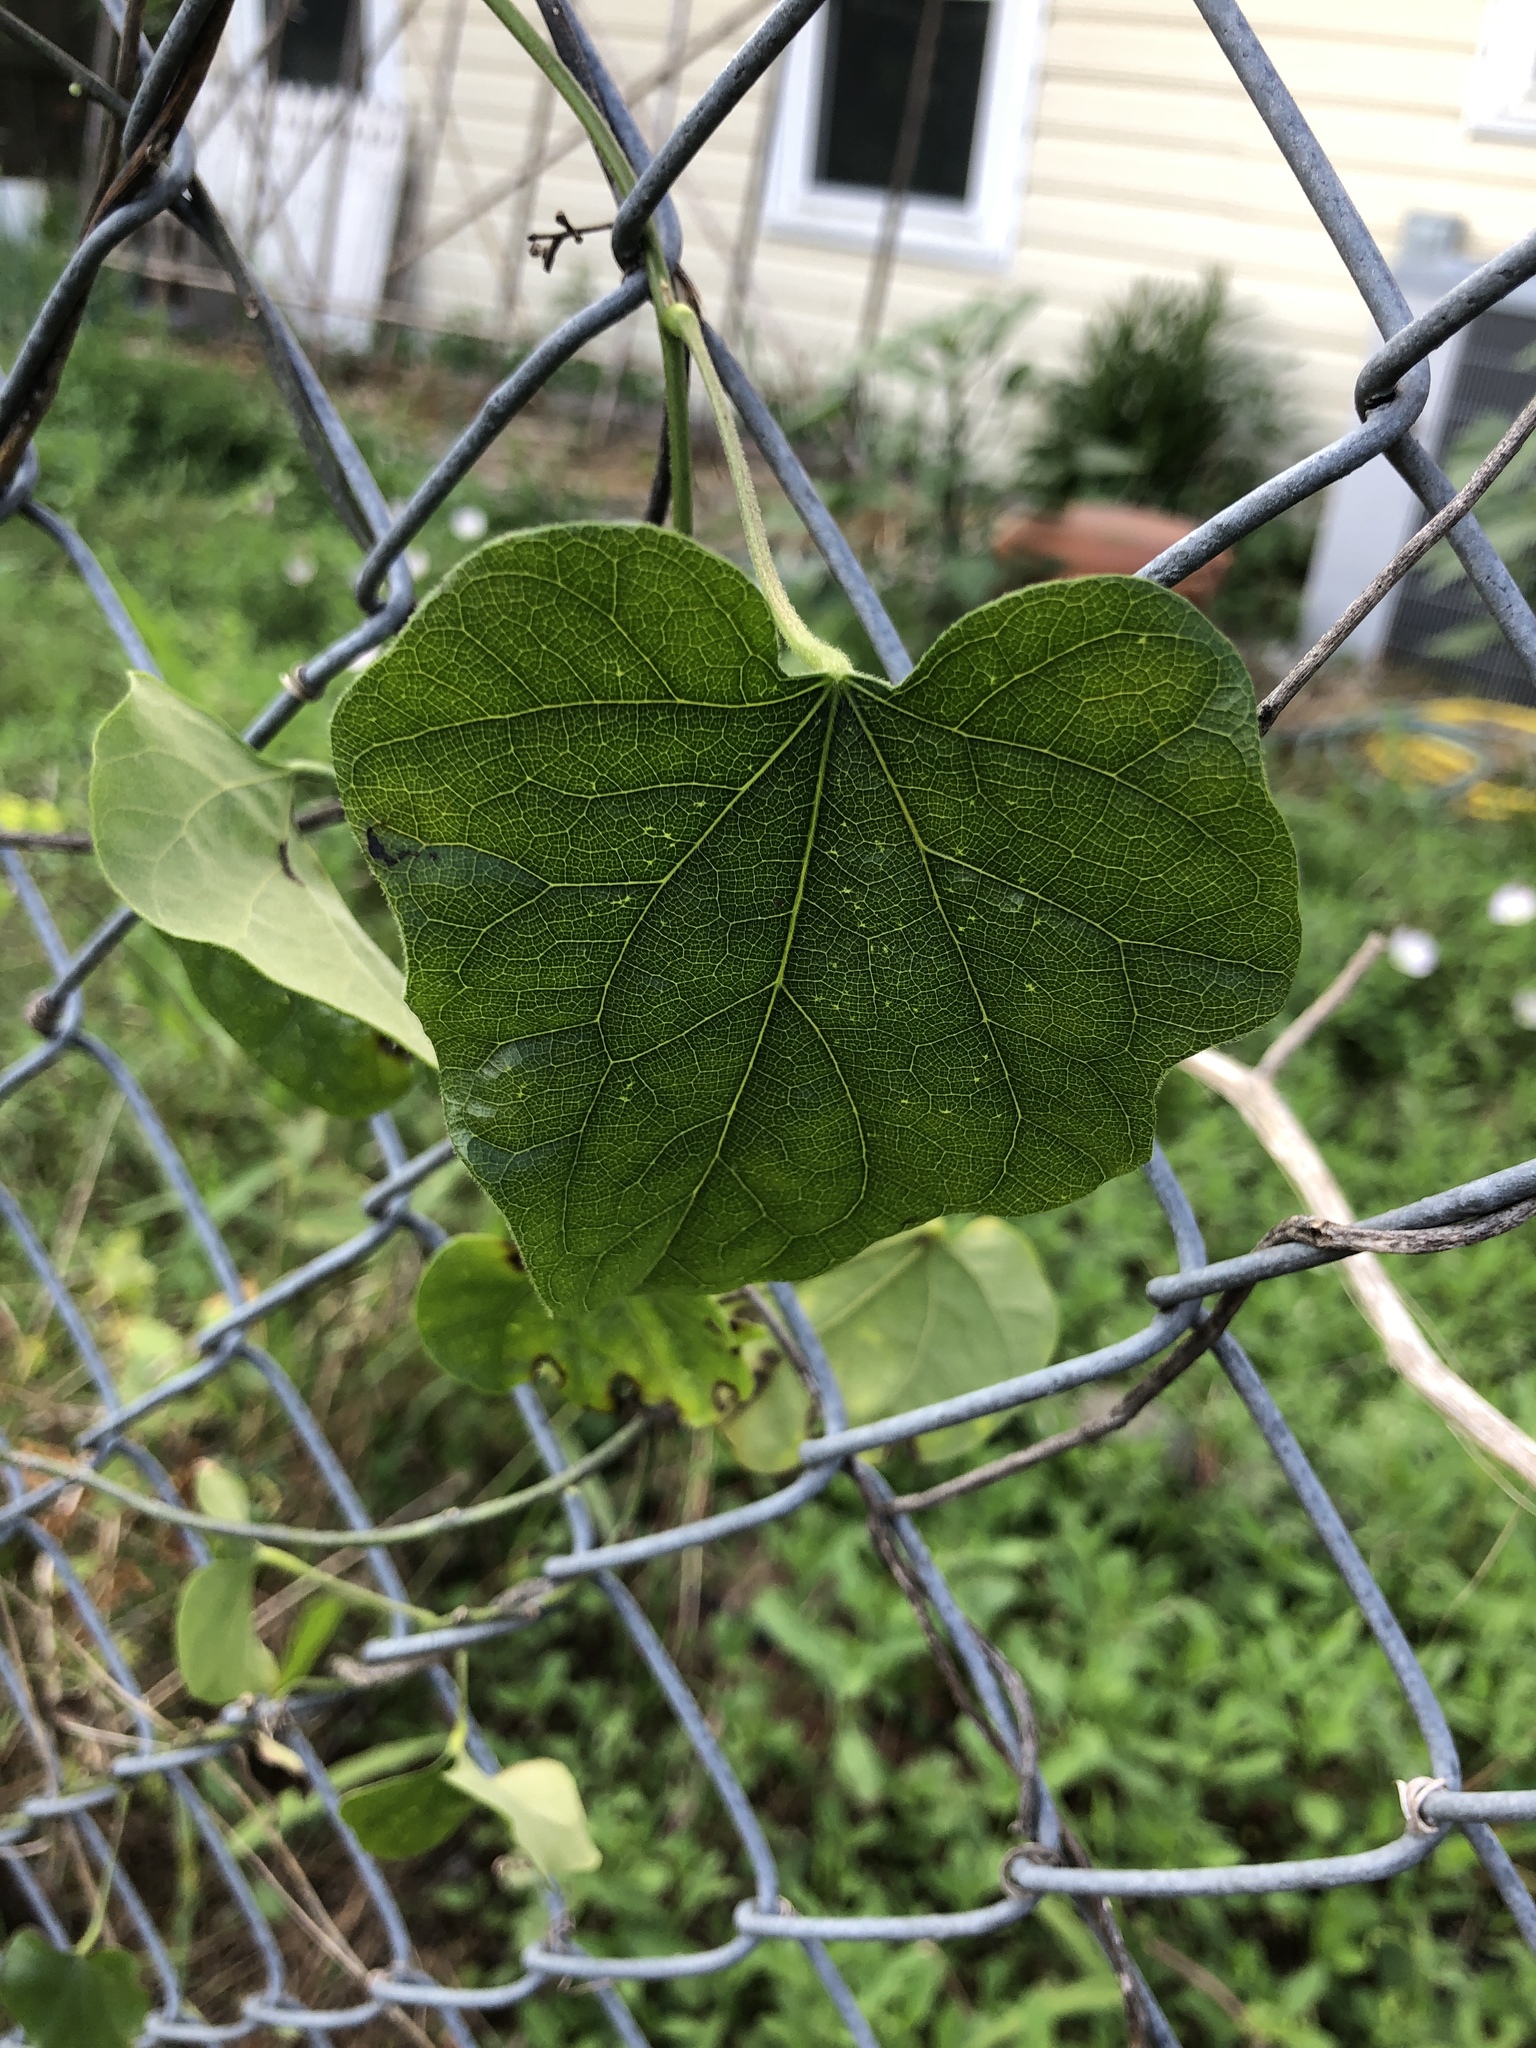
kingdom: Plantae
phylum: Tracheophyta
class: Magnoliopsida
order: Ranunculales
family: Menispermaceae
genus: Cocculus
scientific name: Cocculus carolinus
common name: Carolina moonseed
